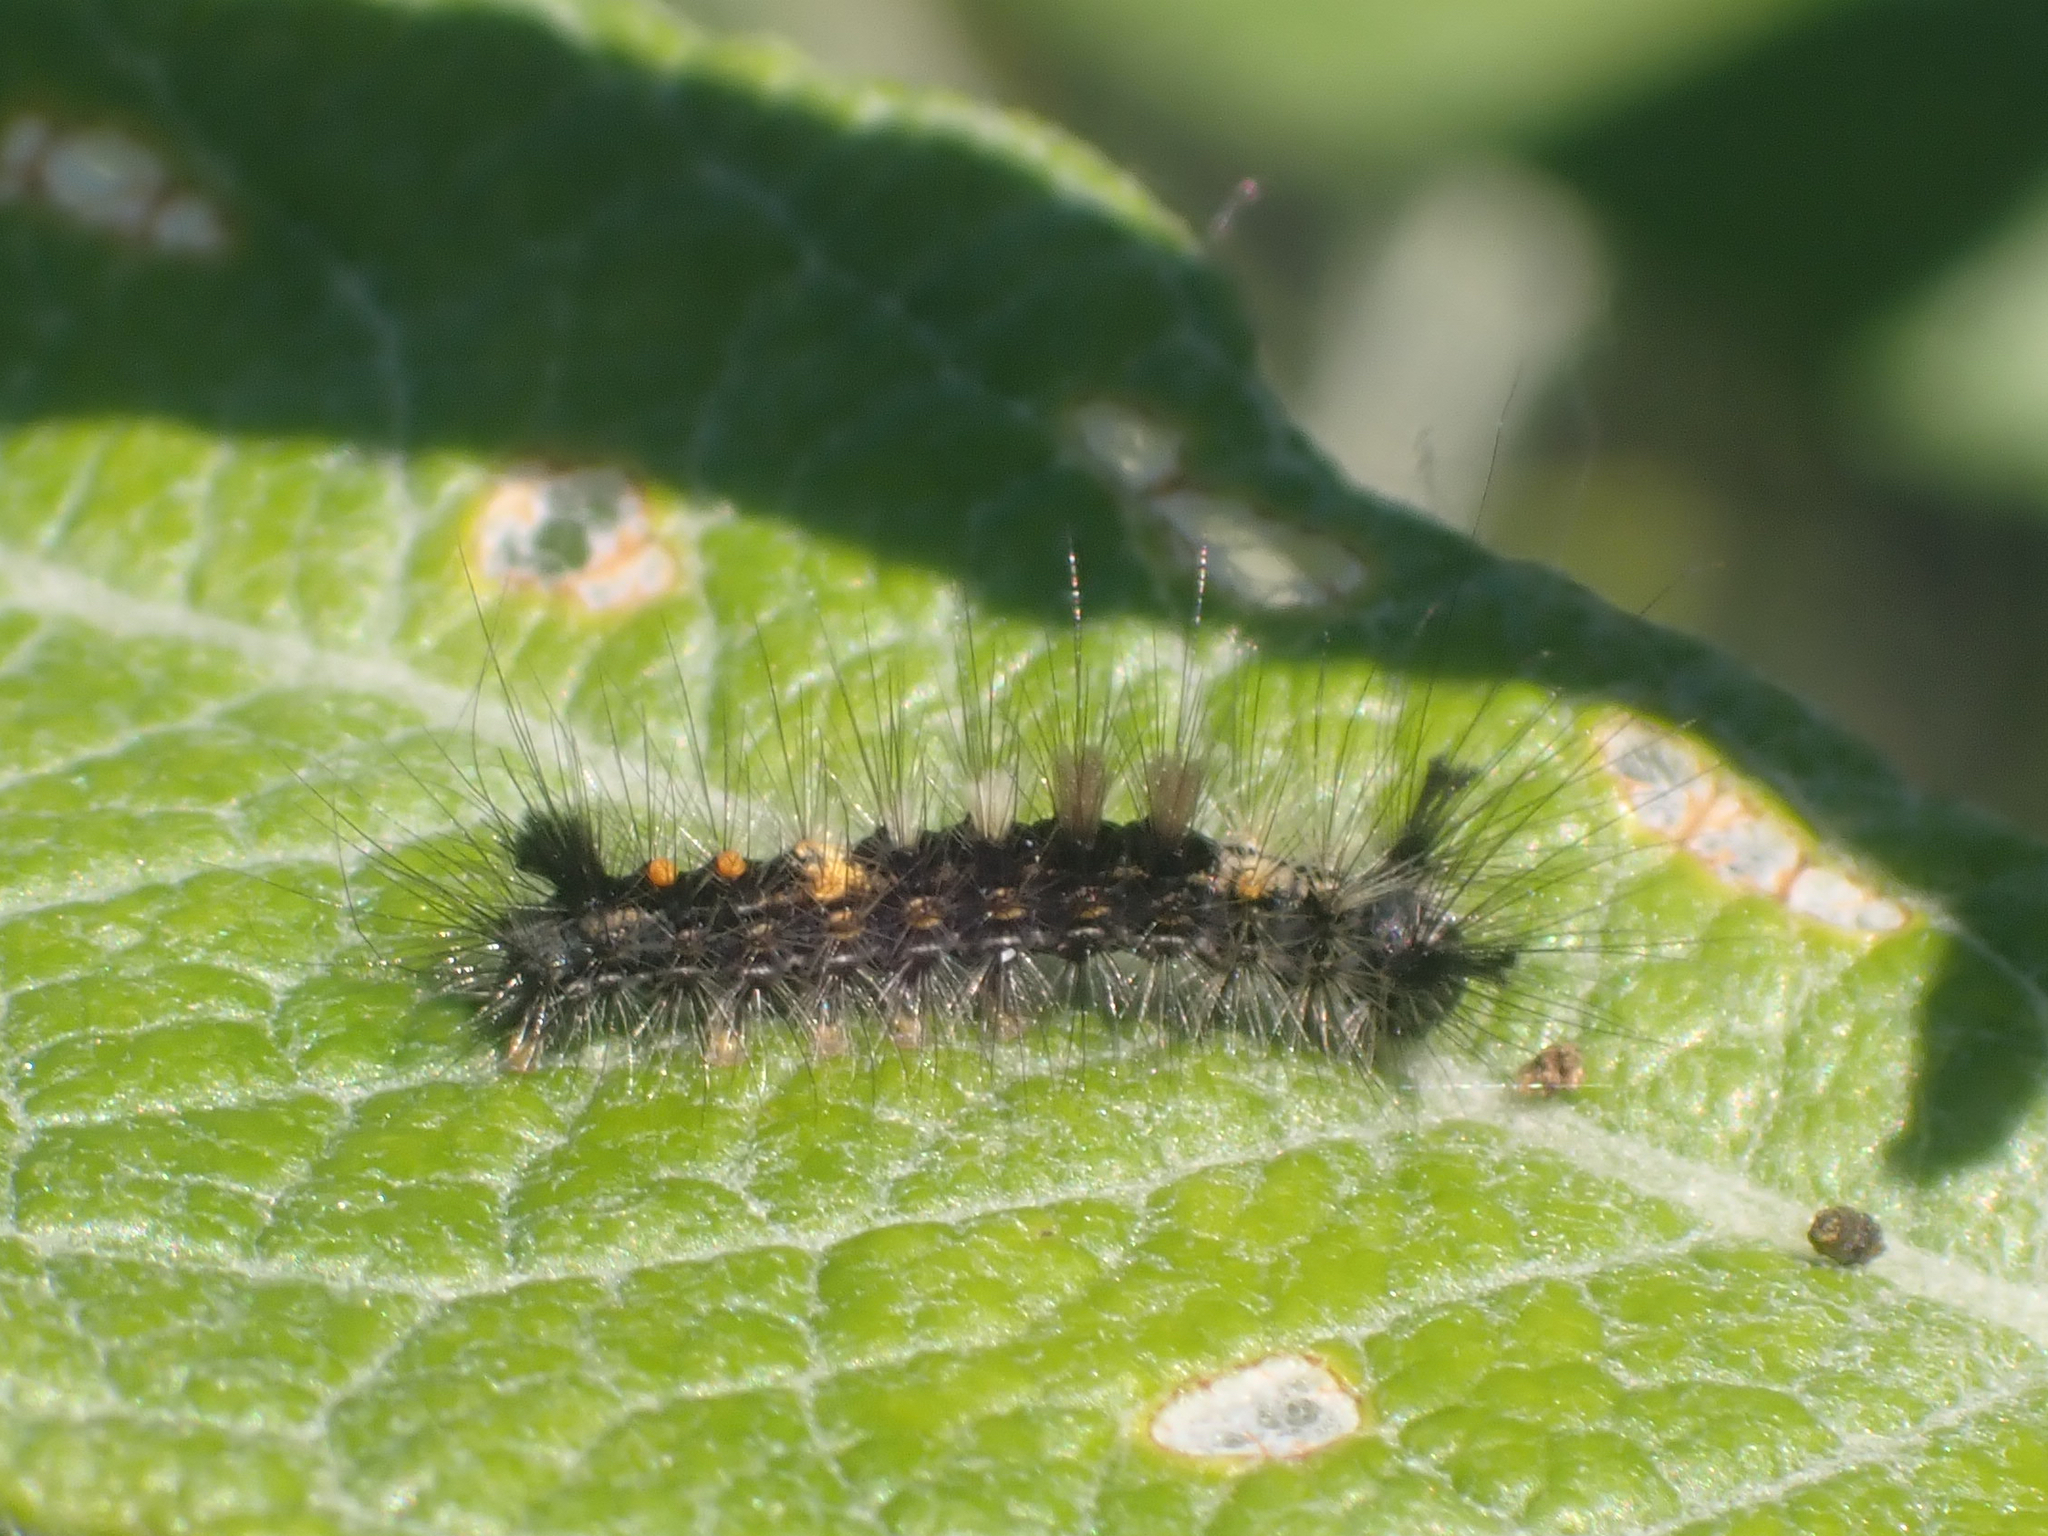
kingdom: Animalia
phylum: Arthropoda
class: Insecta
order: Lepidoptera
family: Erebidae
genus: Orgyia
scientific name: Orgyia antiqua
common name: Vapourer
